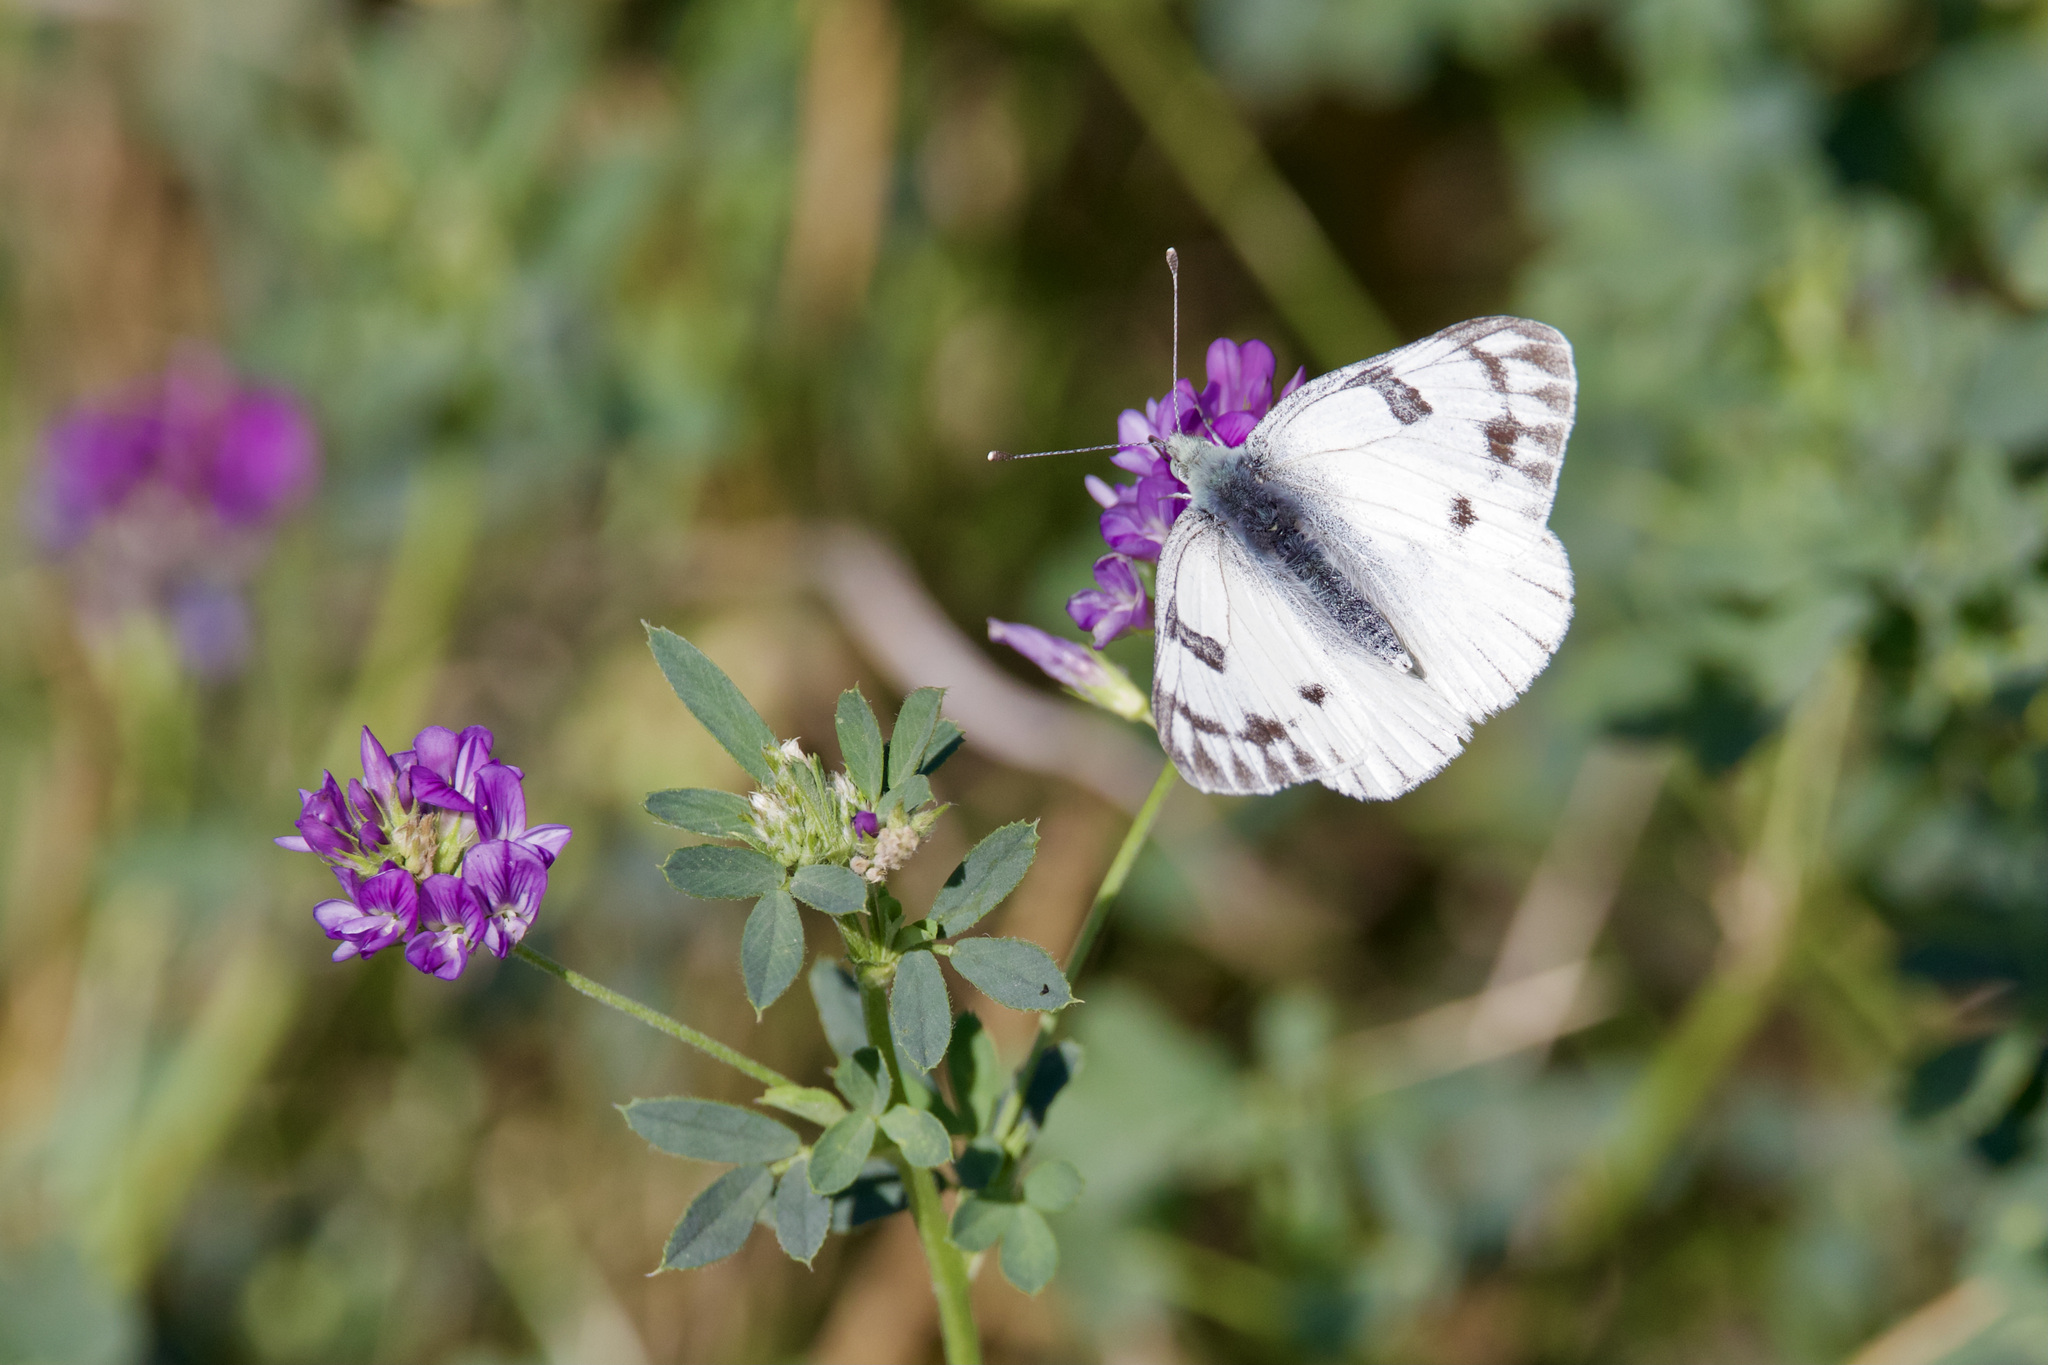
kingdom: Animalia
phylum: Arthropoda
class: Insecta
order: Lepidoptera
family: Pieridae
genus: Pontia
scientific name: Pontia occidentalis
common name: Western white
